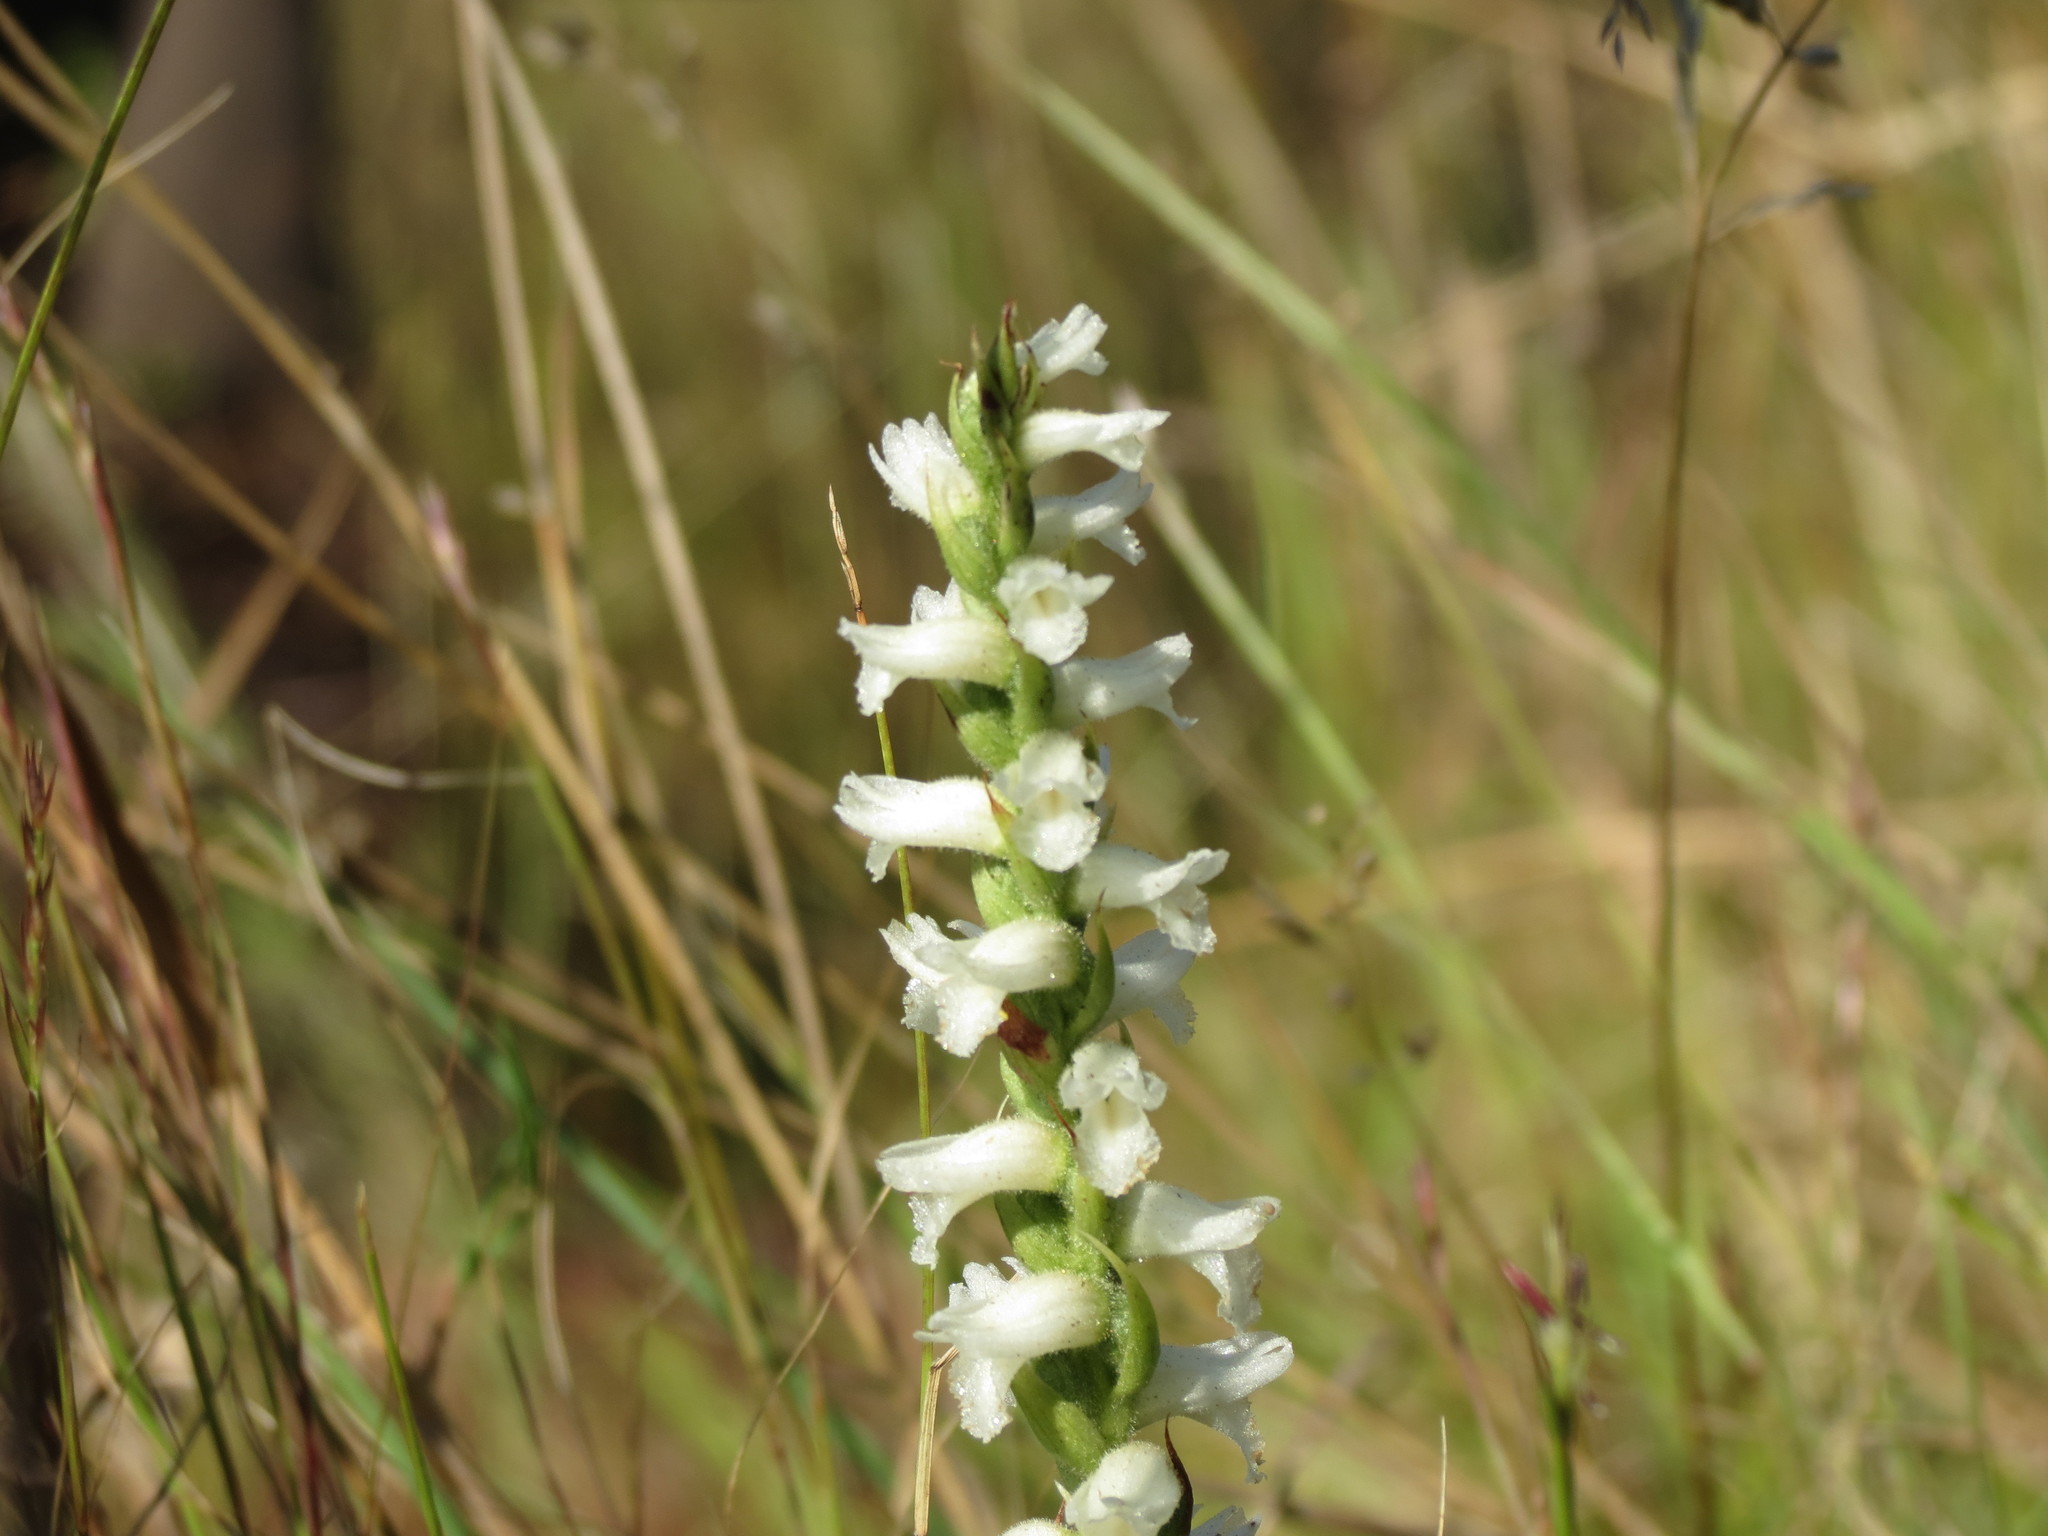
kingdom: Plantae
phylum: Tracheophyta
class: Liliopsida
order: Asparagales
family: Orchidaceae
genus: Spiranthes
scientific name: Spiranthes incurva
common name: Sphinx ladies'-tresses
